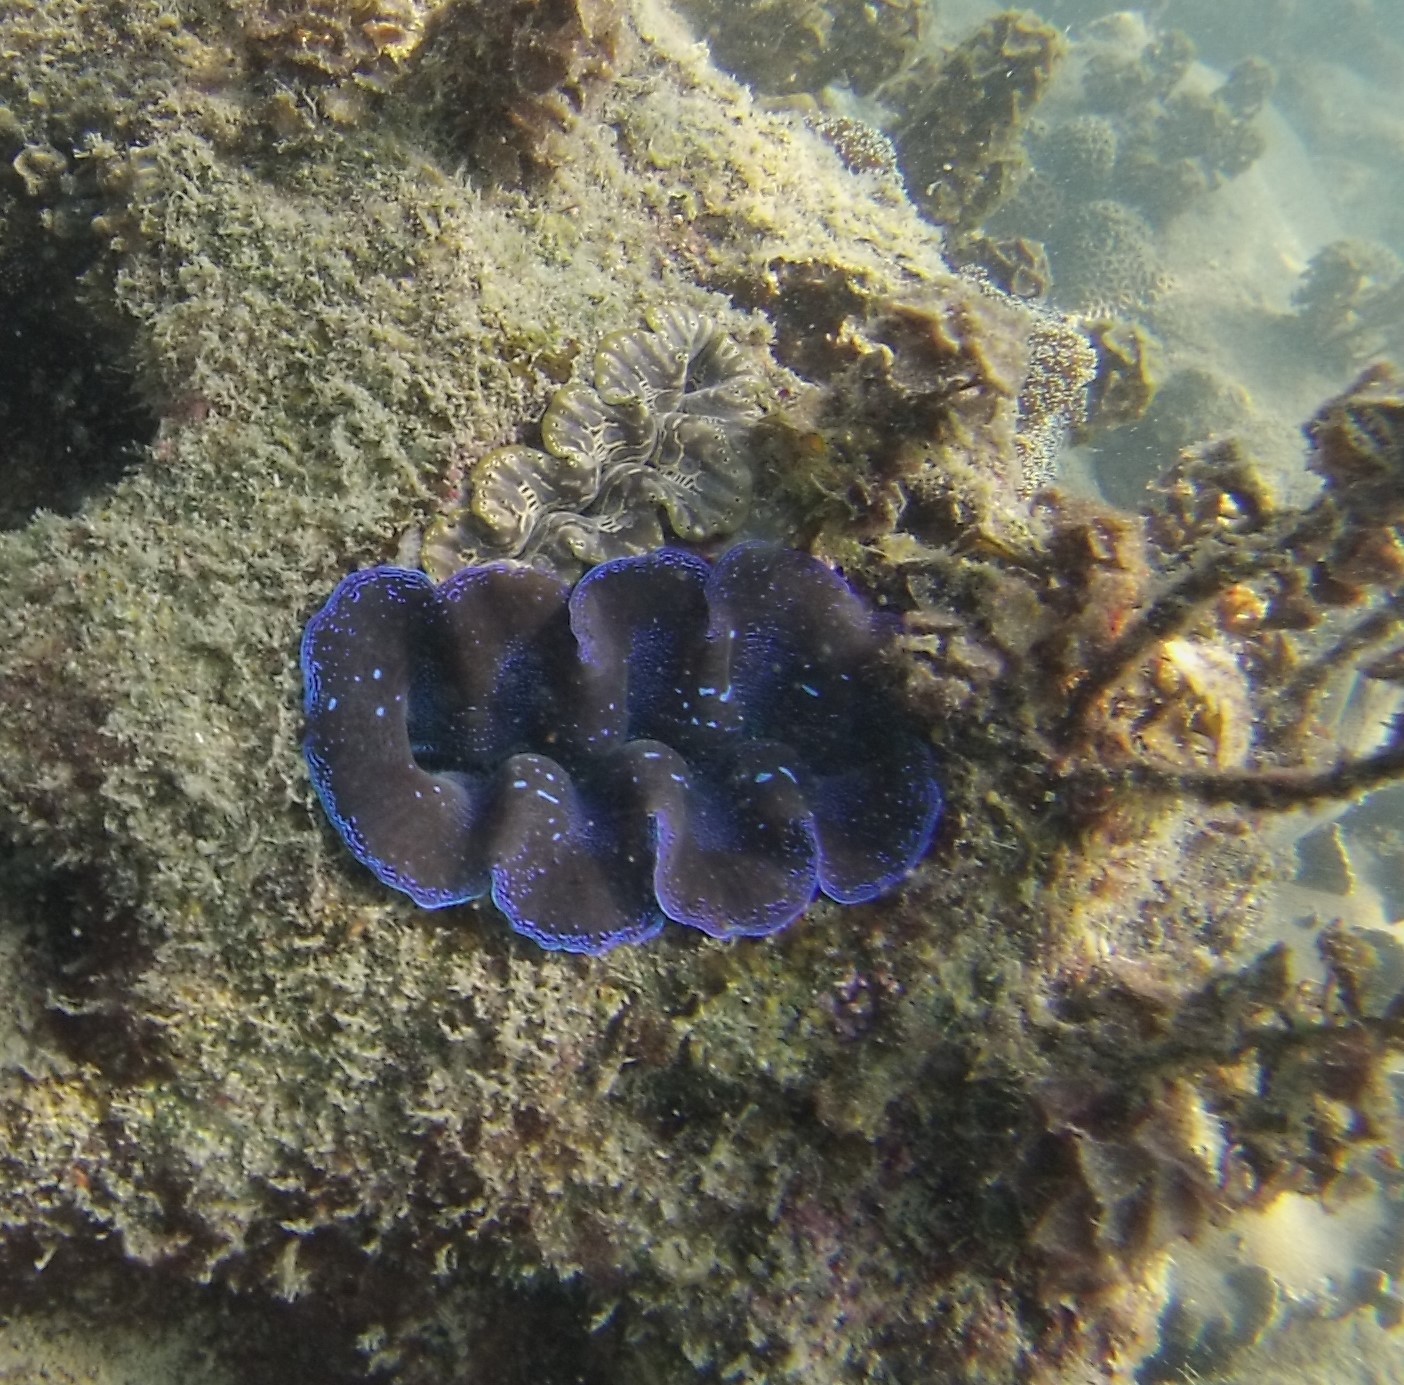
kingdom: Animalia
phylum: Mollusca
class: Bivalvia
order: Cardiida
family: Cardiidae
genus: Tridacna
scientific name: Tridacna crocea
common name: Boring clam
